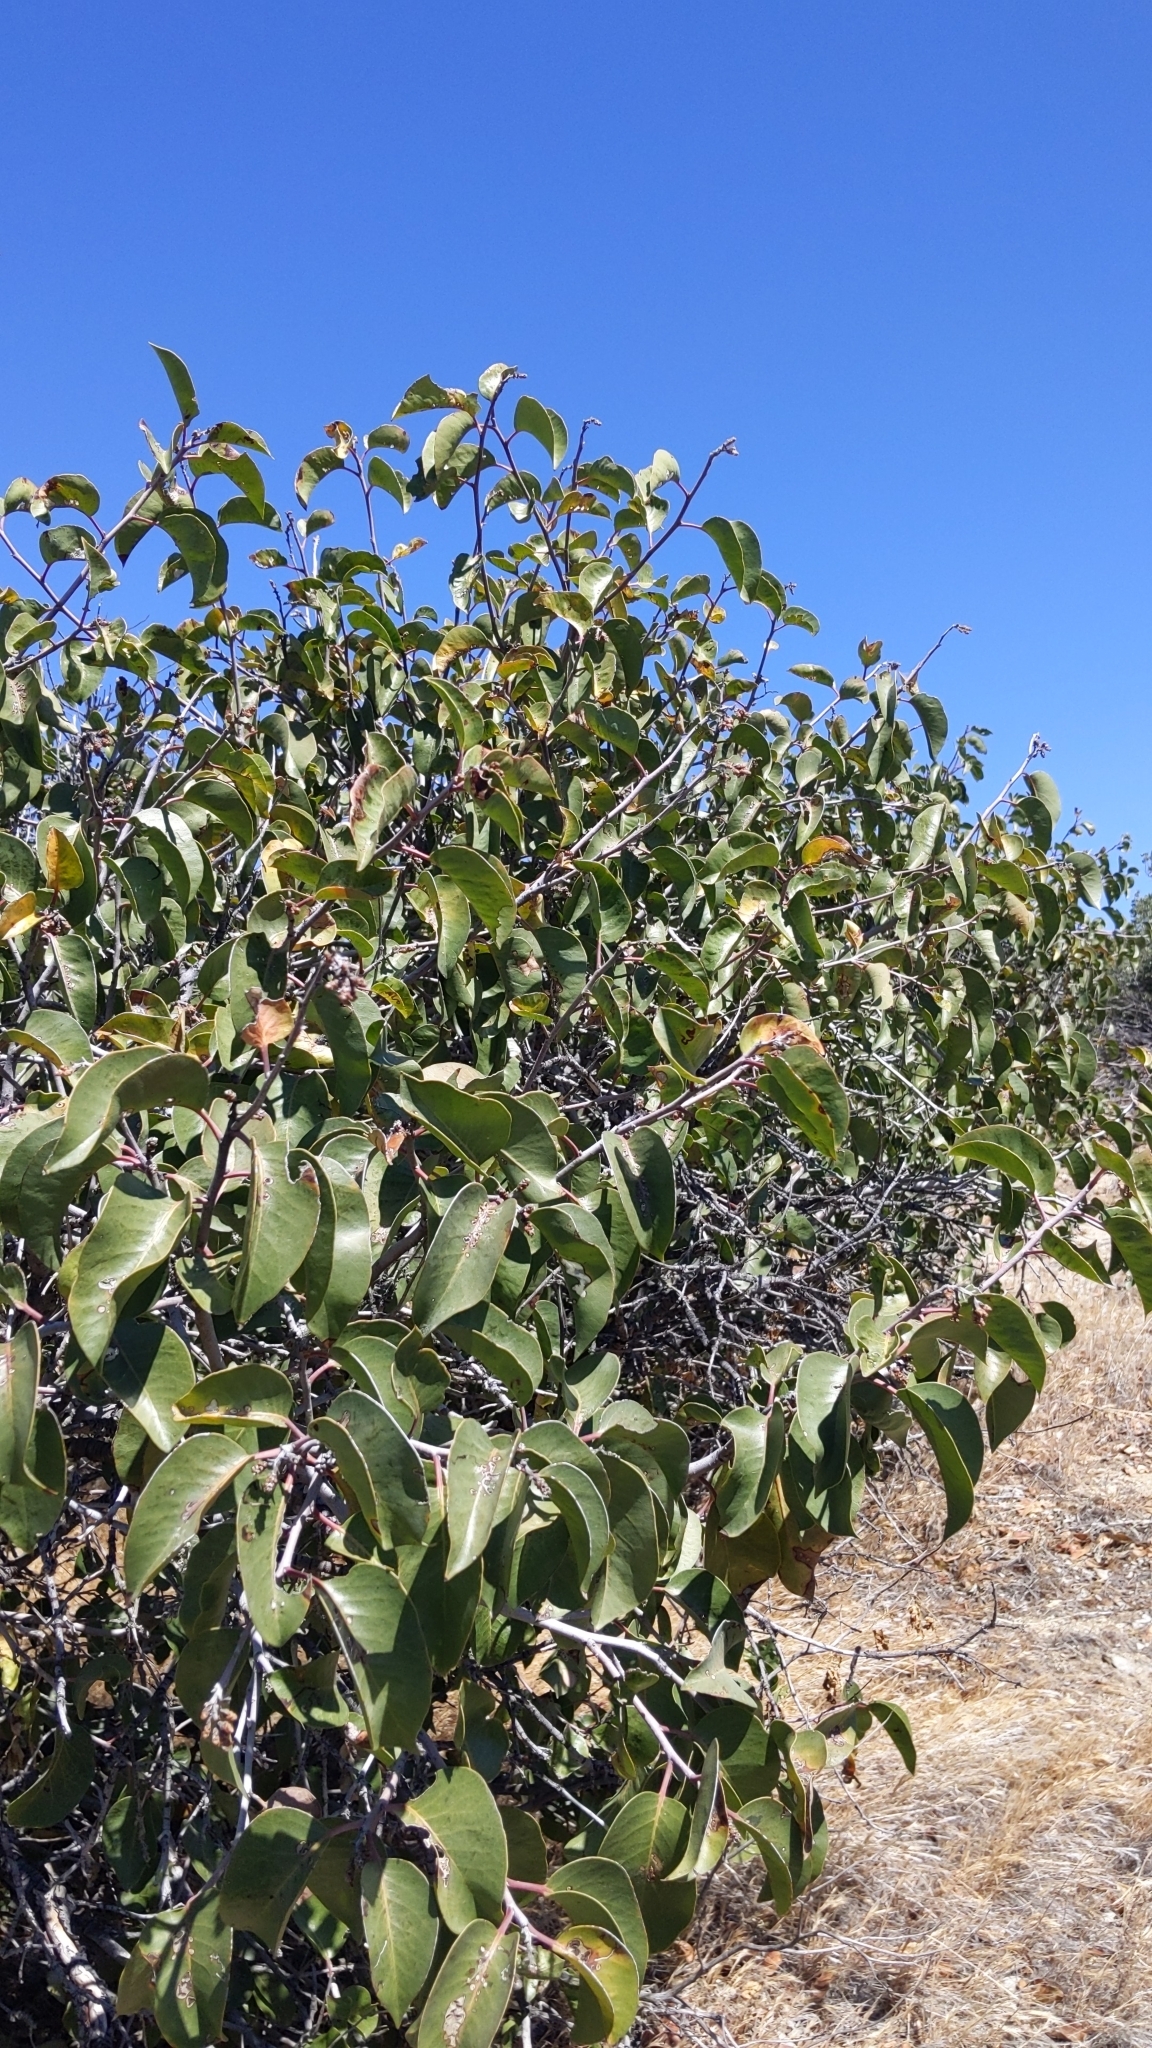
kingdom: Plantae
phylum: Tracheophyta
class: Magnoliopsida
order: Sapindales
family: Anacardiaceae
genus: Rhus
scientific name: Rhus ovata
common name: Sugar sumac
